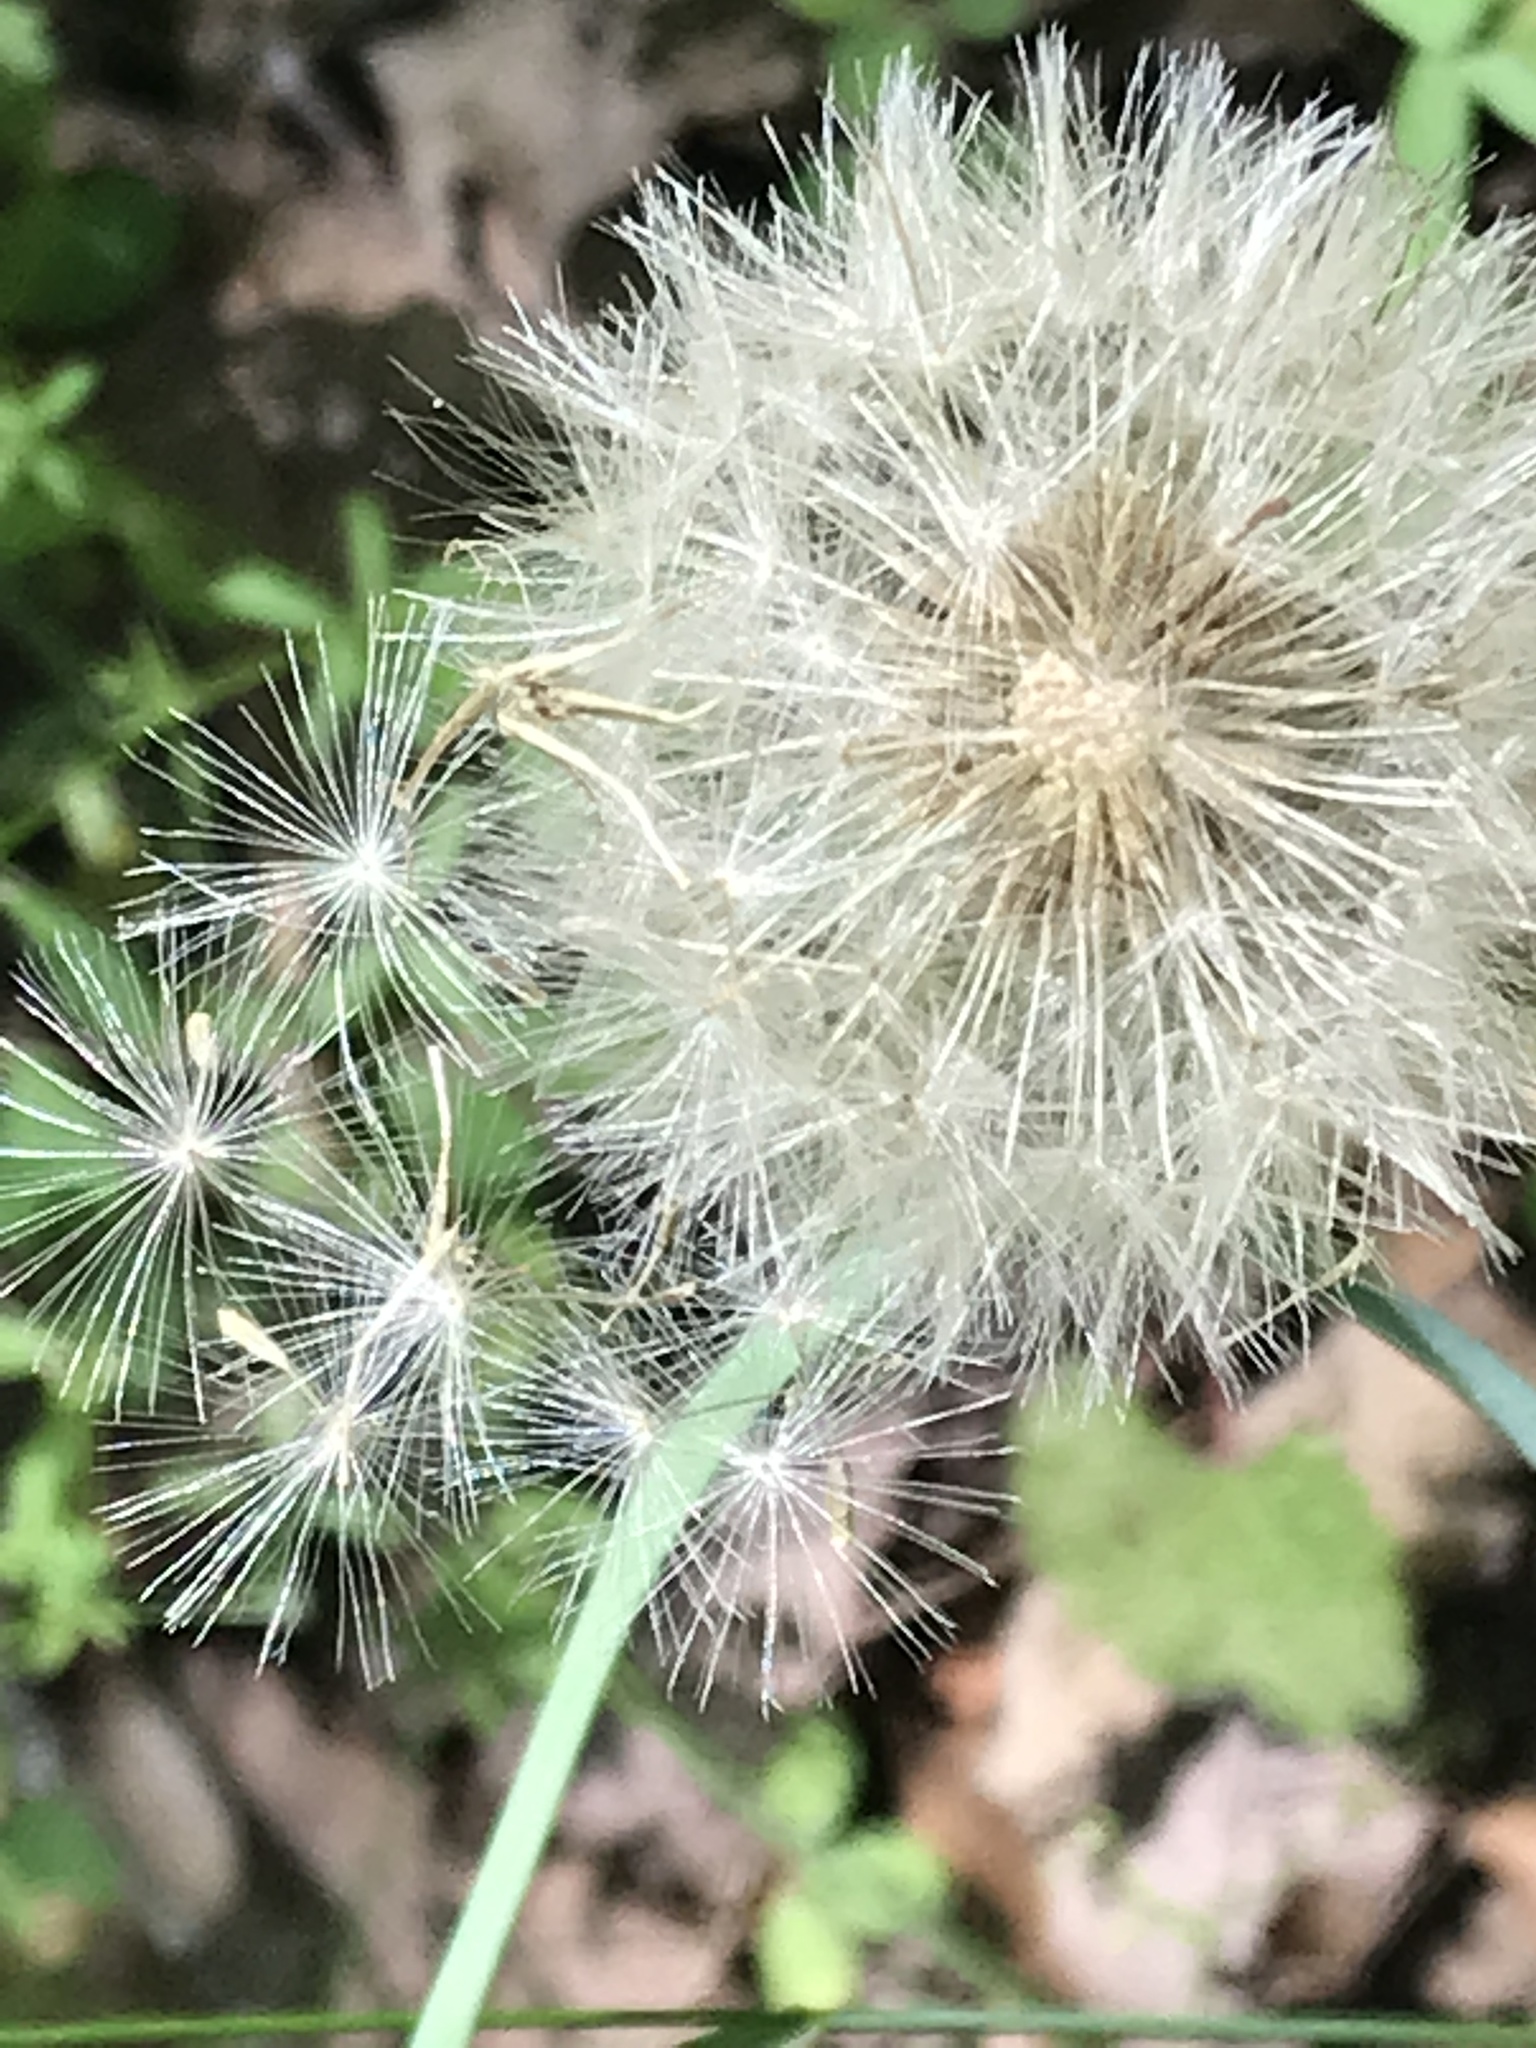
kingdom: Plantae
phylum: Tracheophyta
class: Magnoliopsida
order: Asterales
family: Asteraceae
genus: Taraxacum
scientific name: Taraxacum officinale
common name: Common dandelion
